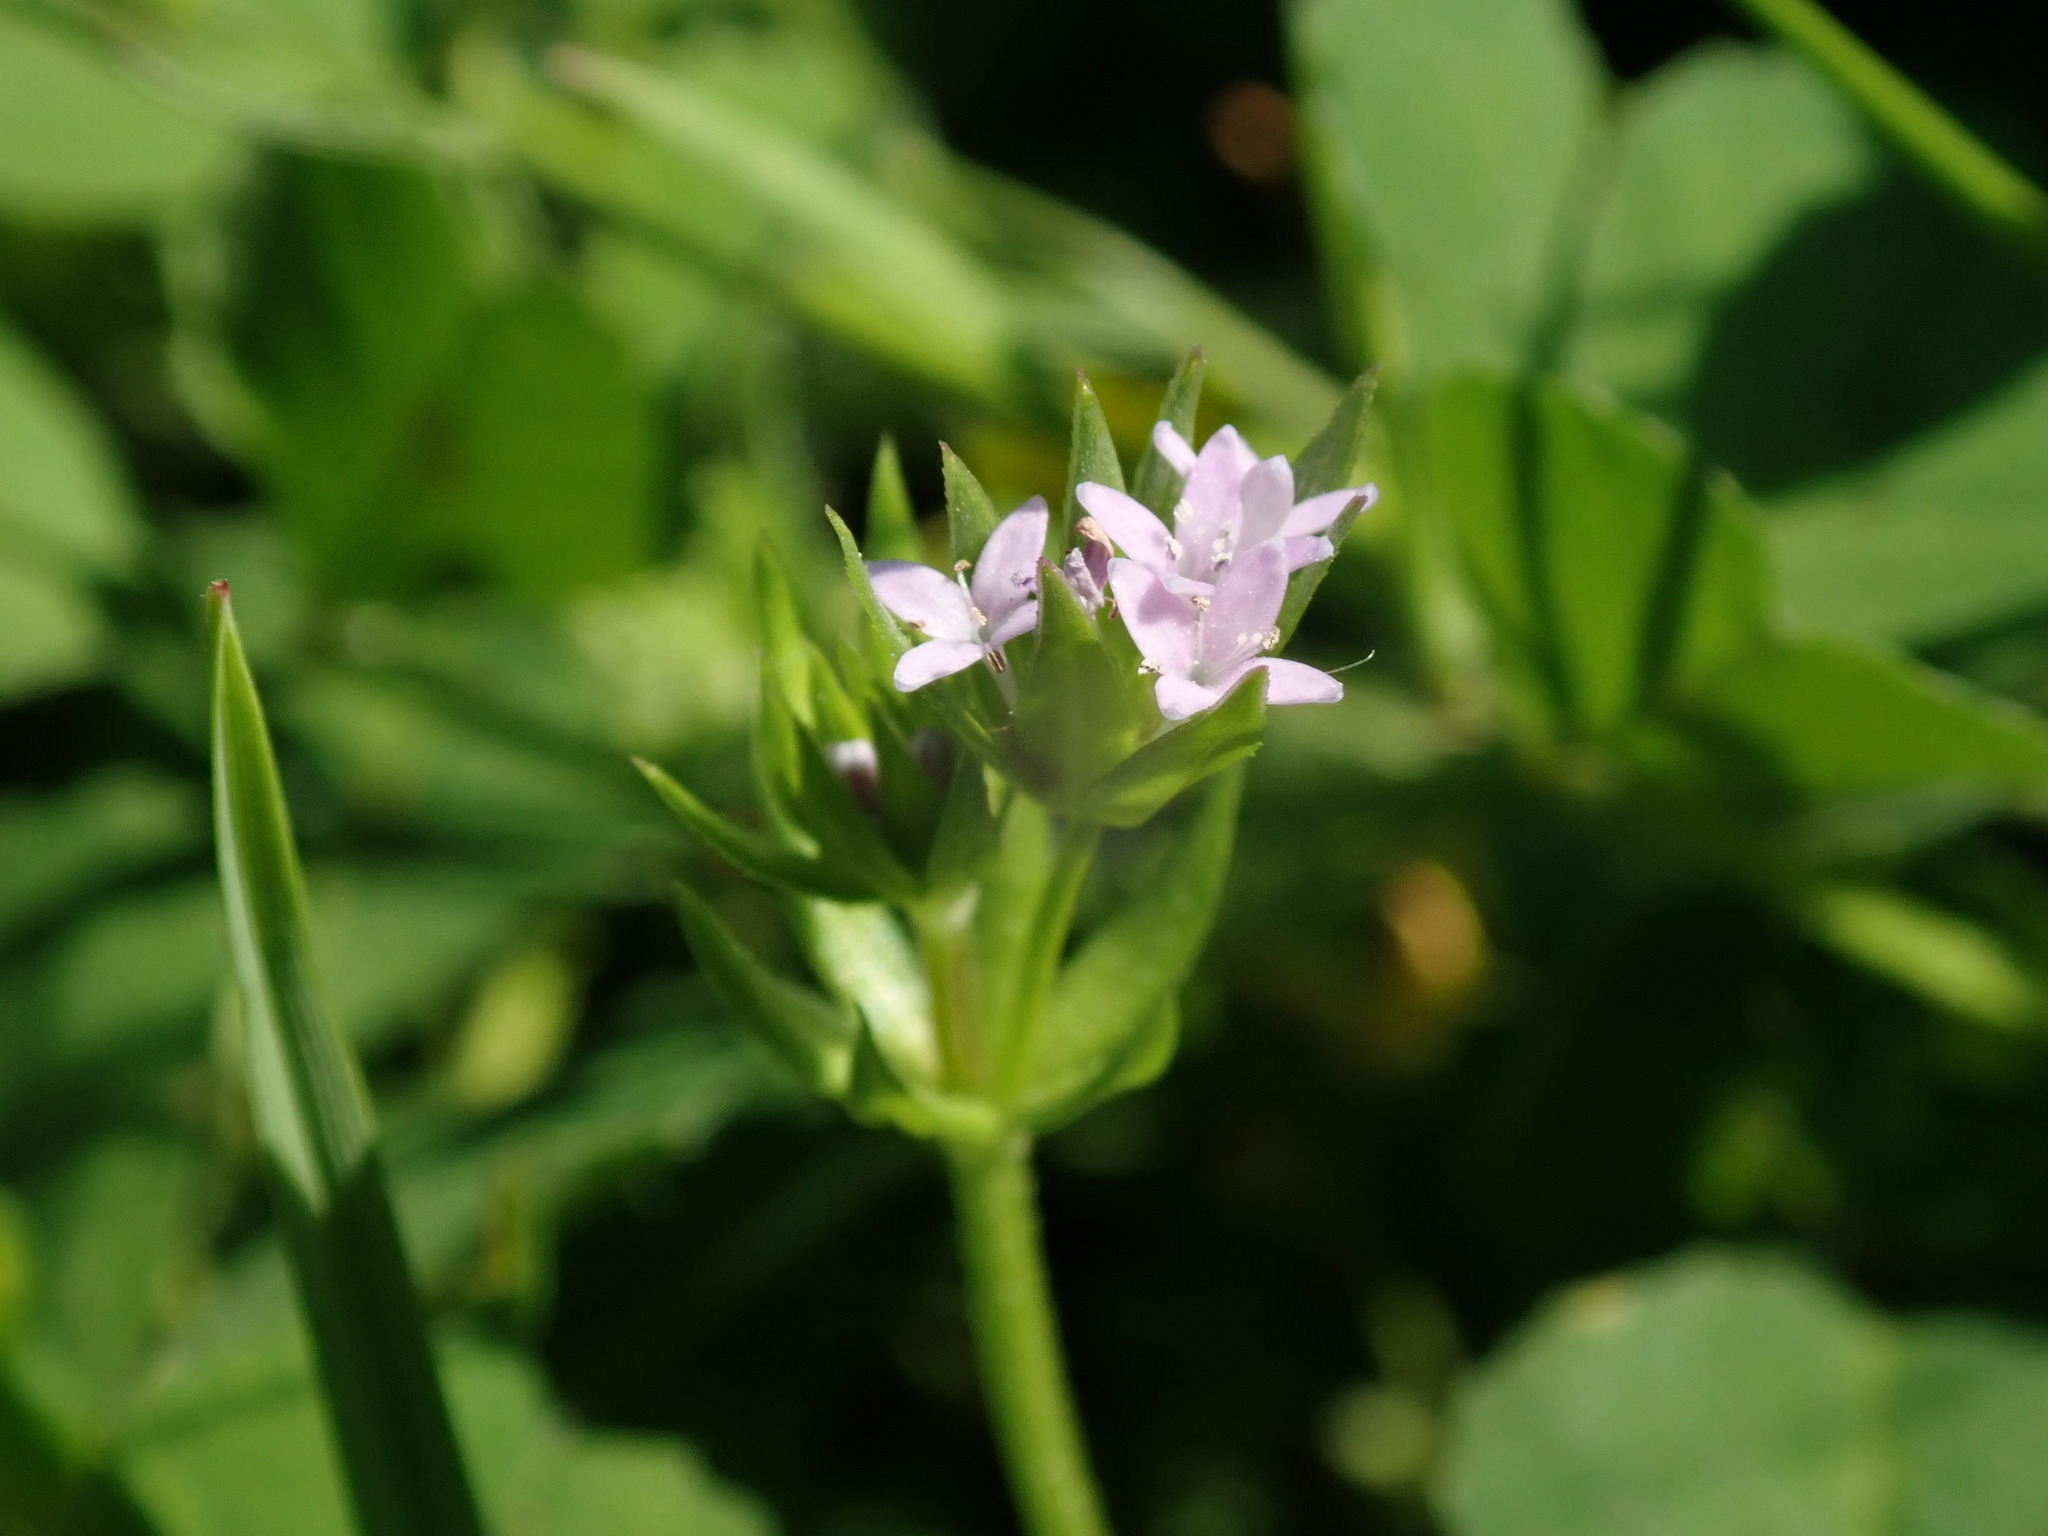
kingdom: Plantae
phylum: Tracheophyta
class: Magnoliopsida
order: Gentianales
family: Rubiaceae
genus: Sherardia
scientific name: Sherardia arvensis
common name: Field madder
